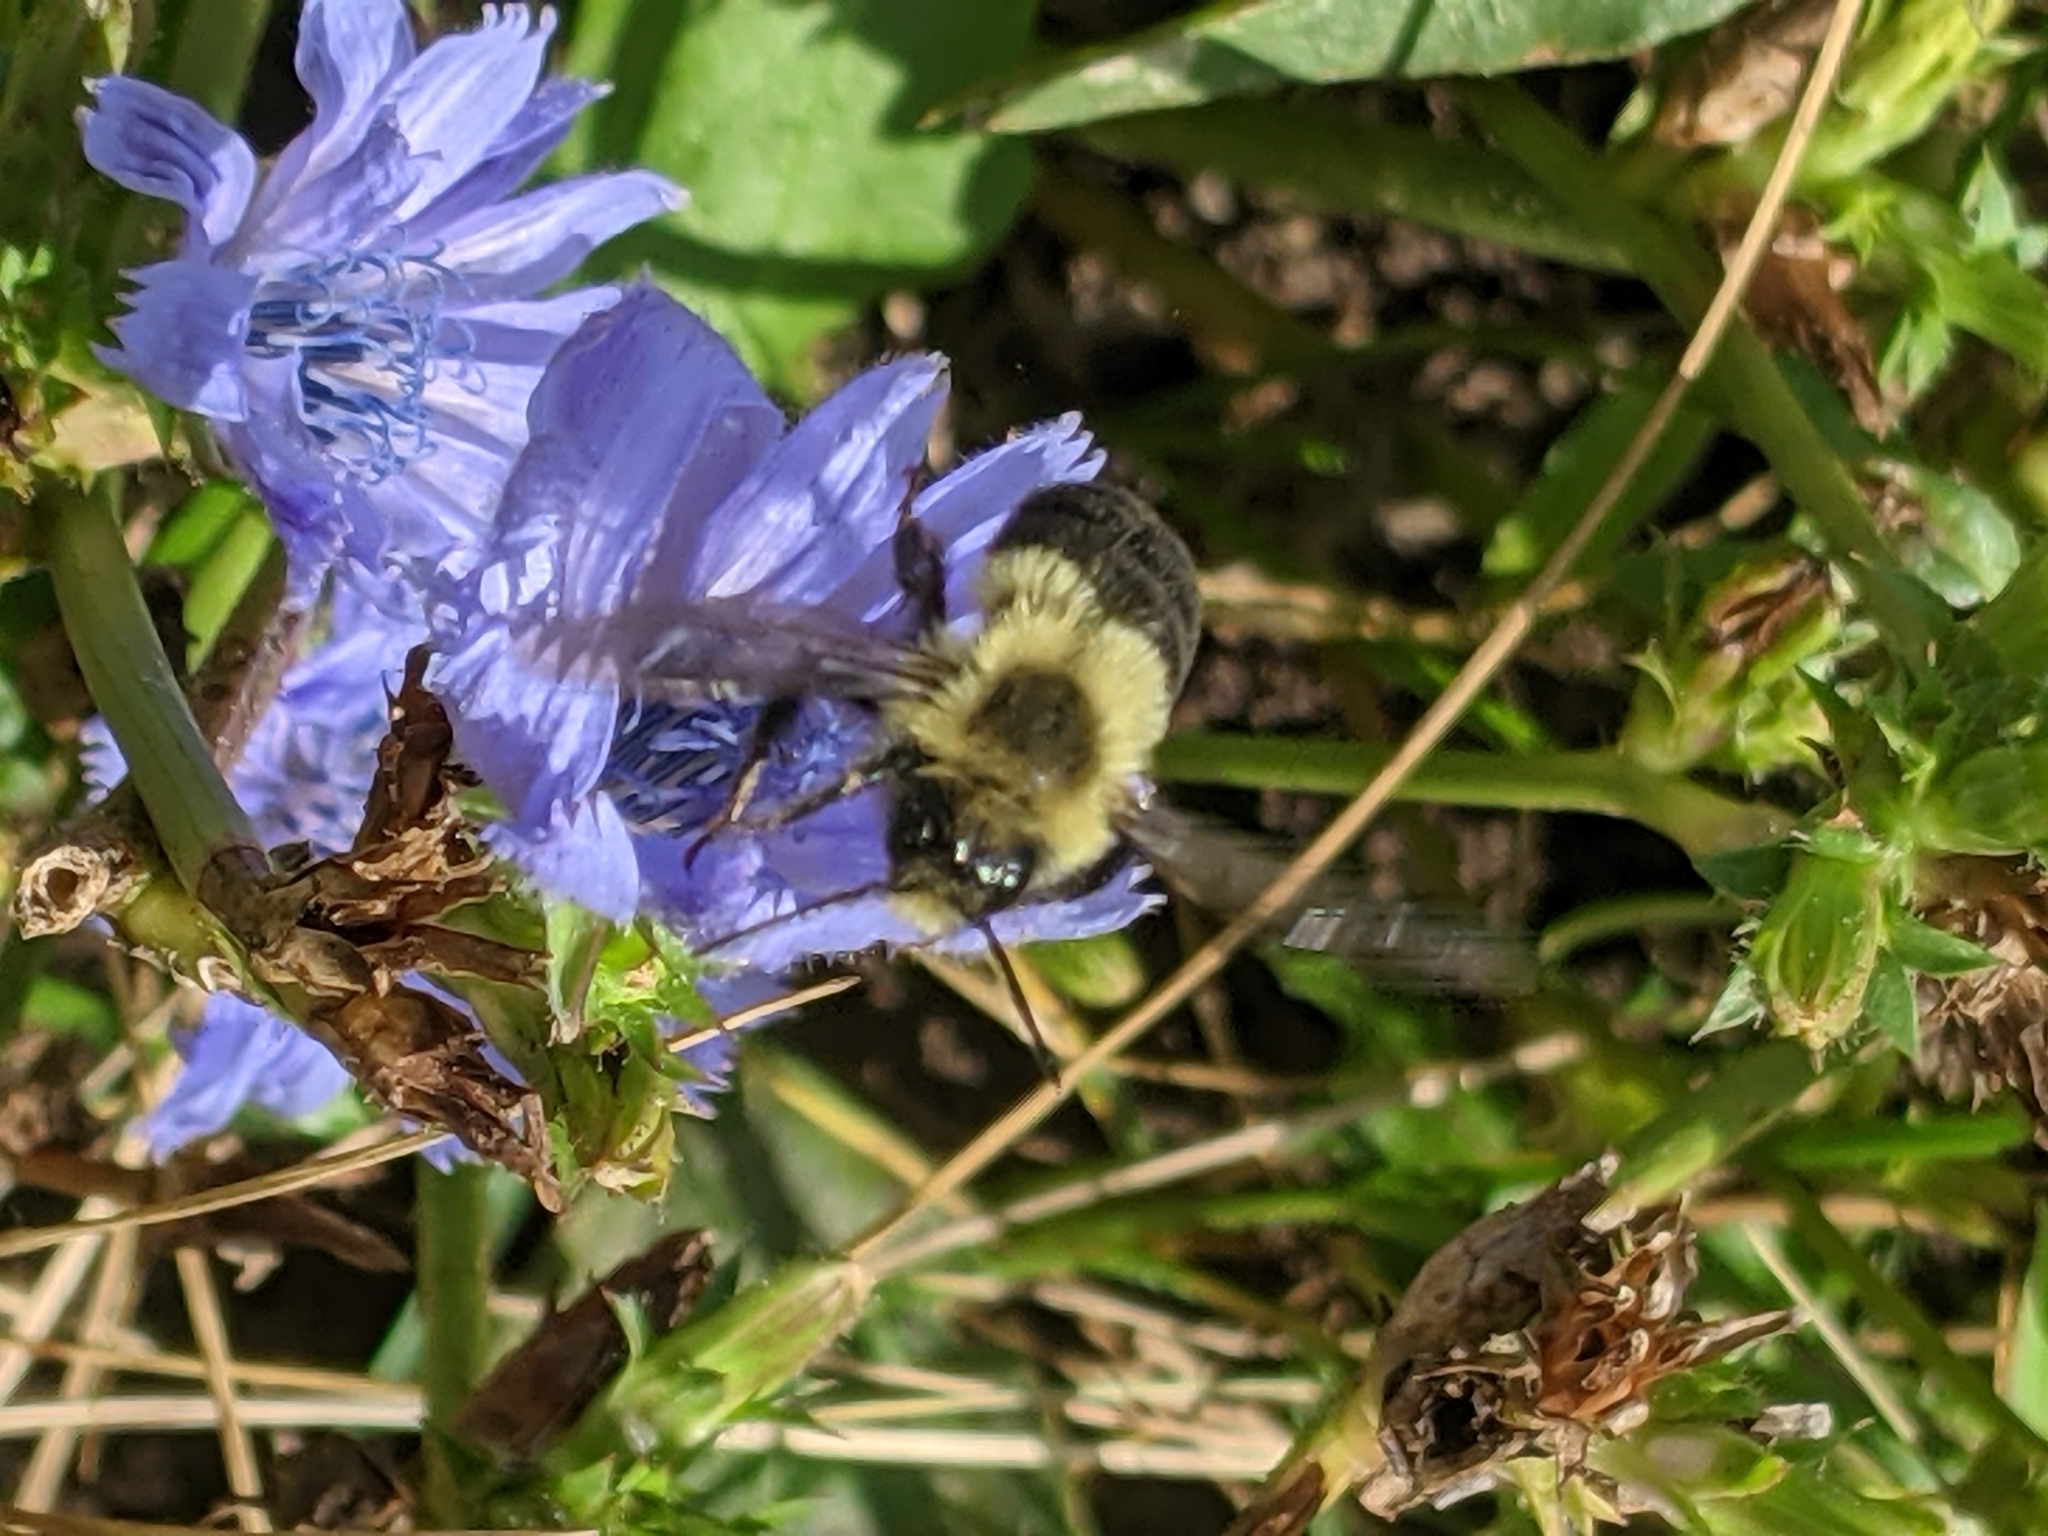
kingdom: Animalia
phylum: Arthropoda
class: Insecta
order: Hymenoptera
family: Apidae
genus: Bombus
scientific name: Bombus impatiens
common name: Common eastern bumble bee
